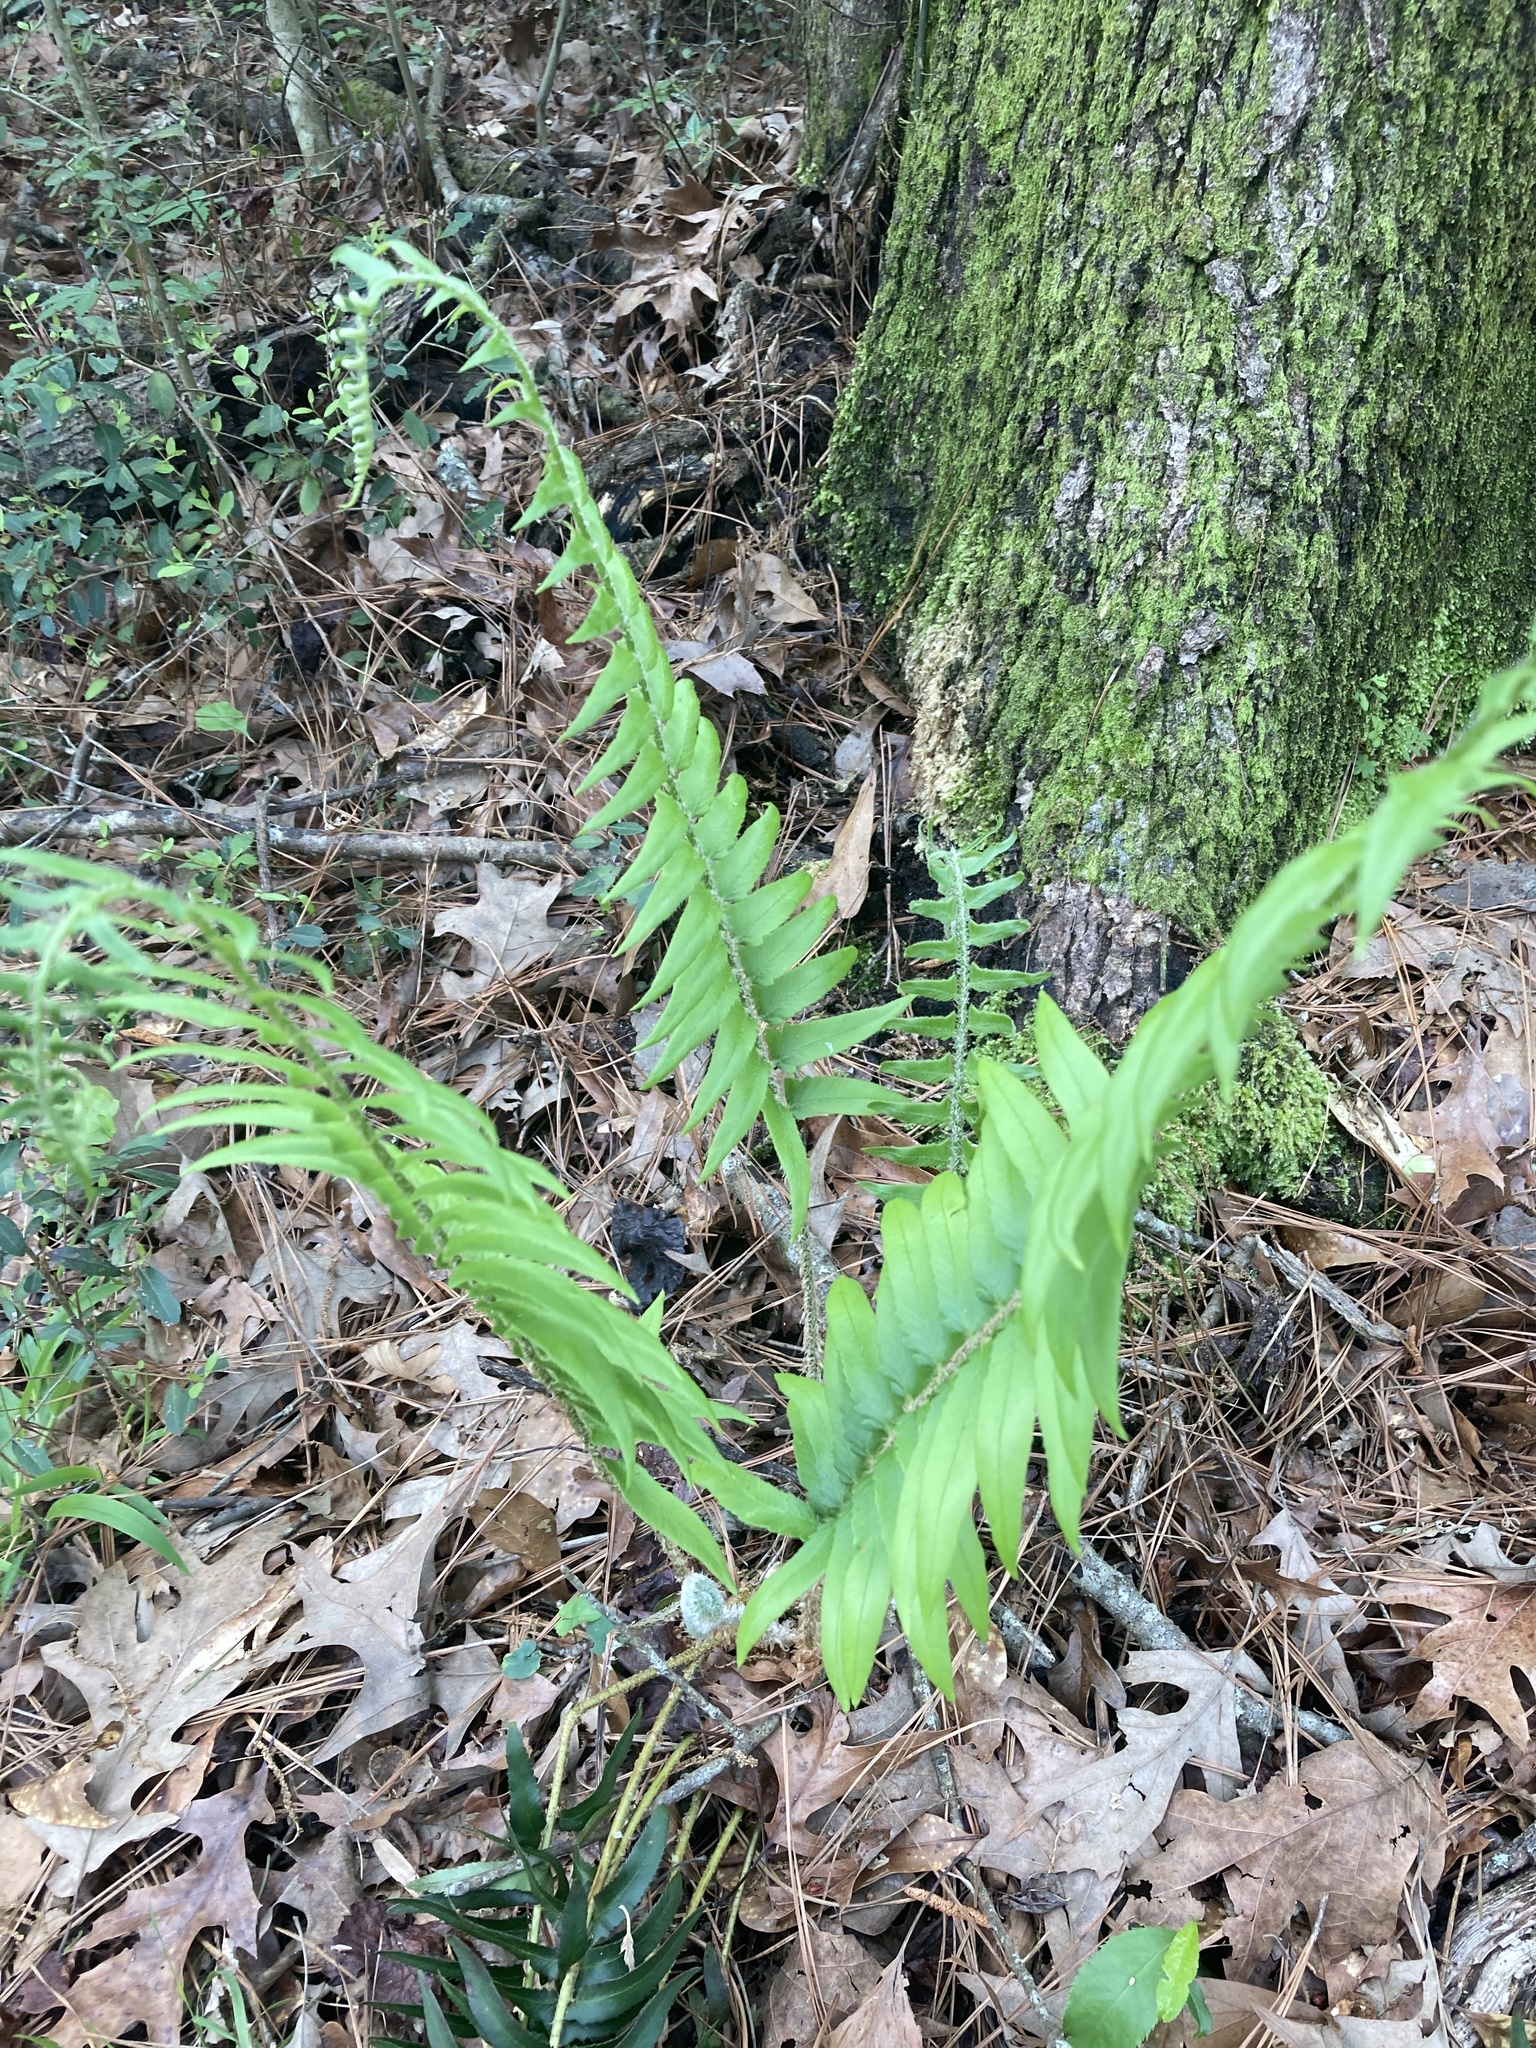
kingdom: Plantae
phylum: Tracheophyta
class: Polypodiopsida
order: Polypodiales
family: Dryopteridaceae
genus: Polystichum
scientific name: Polystichum acrostichoides
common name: Christmas fern
